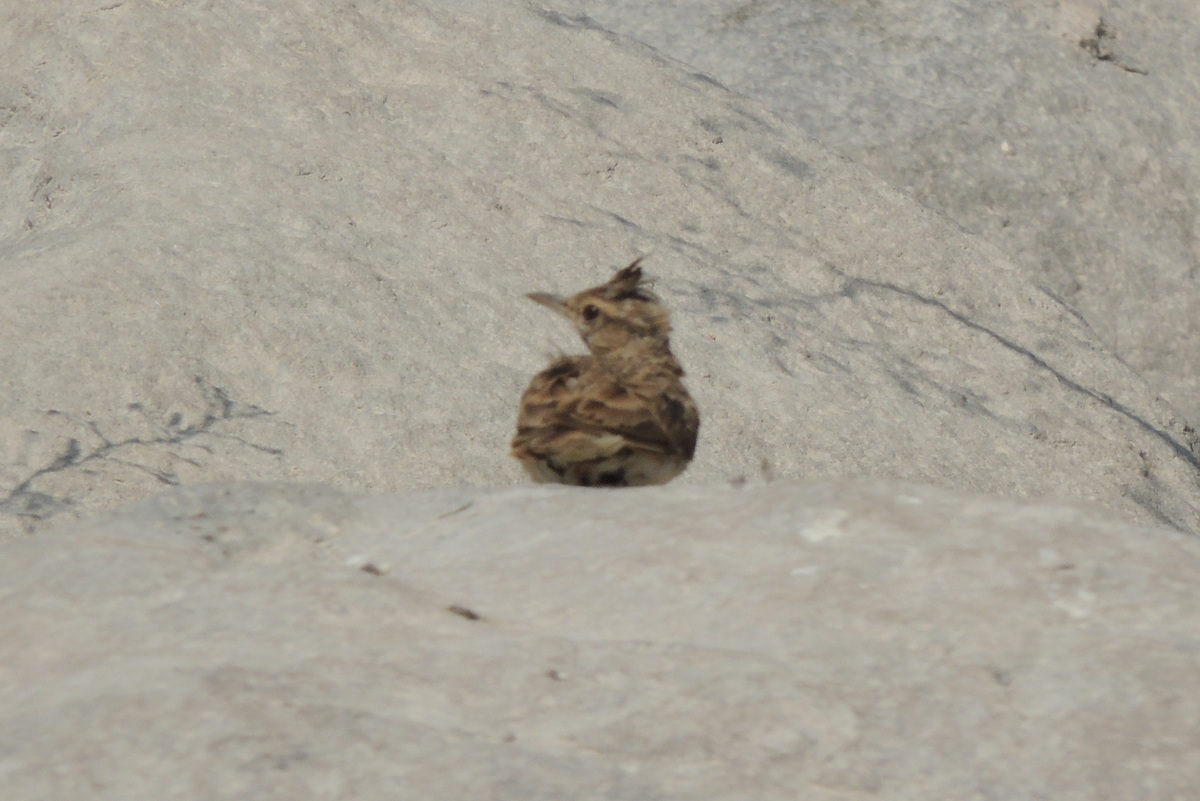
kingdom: Animalia
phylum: Chordata
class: Aves
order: Passeriformes
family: Alaudidae
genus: Galerida
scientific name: Galerida cristata
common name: Crested lark
